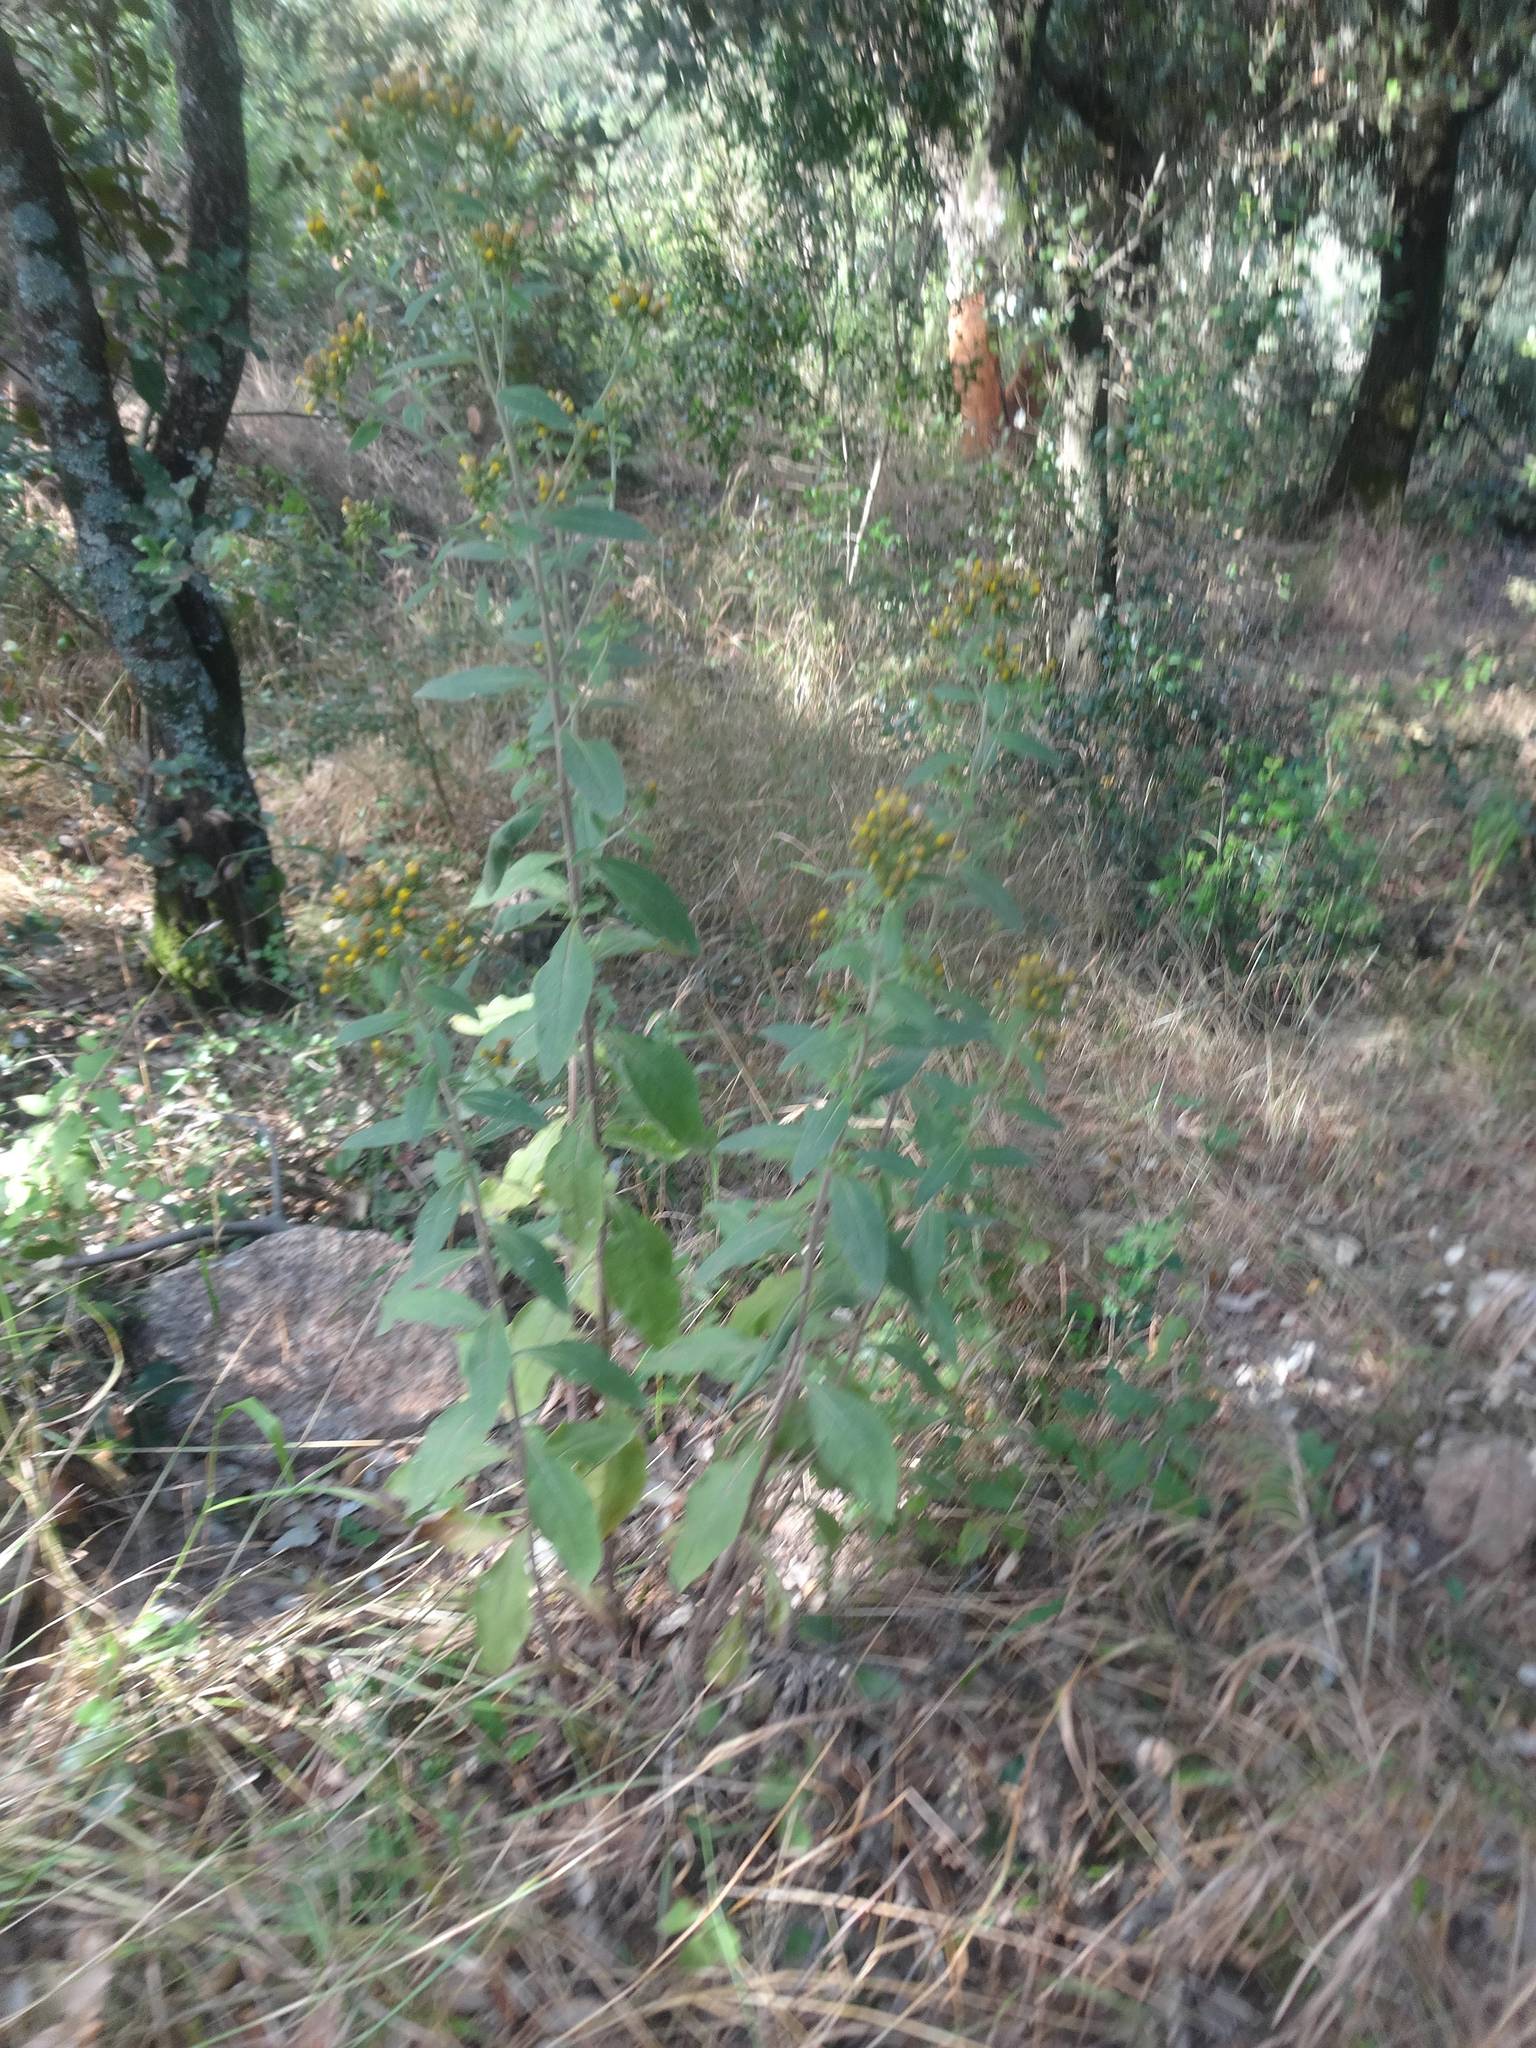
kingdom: Plantae
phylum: Tracheophyta
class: Magnoliopsida
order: Asterales
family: Asteraceae
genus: Pentanema
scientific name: Pentanema squarrosum
